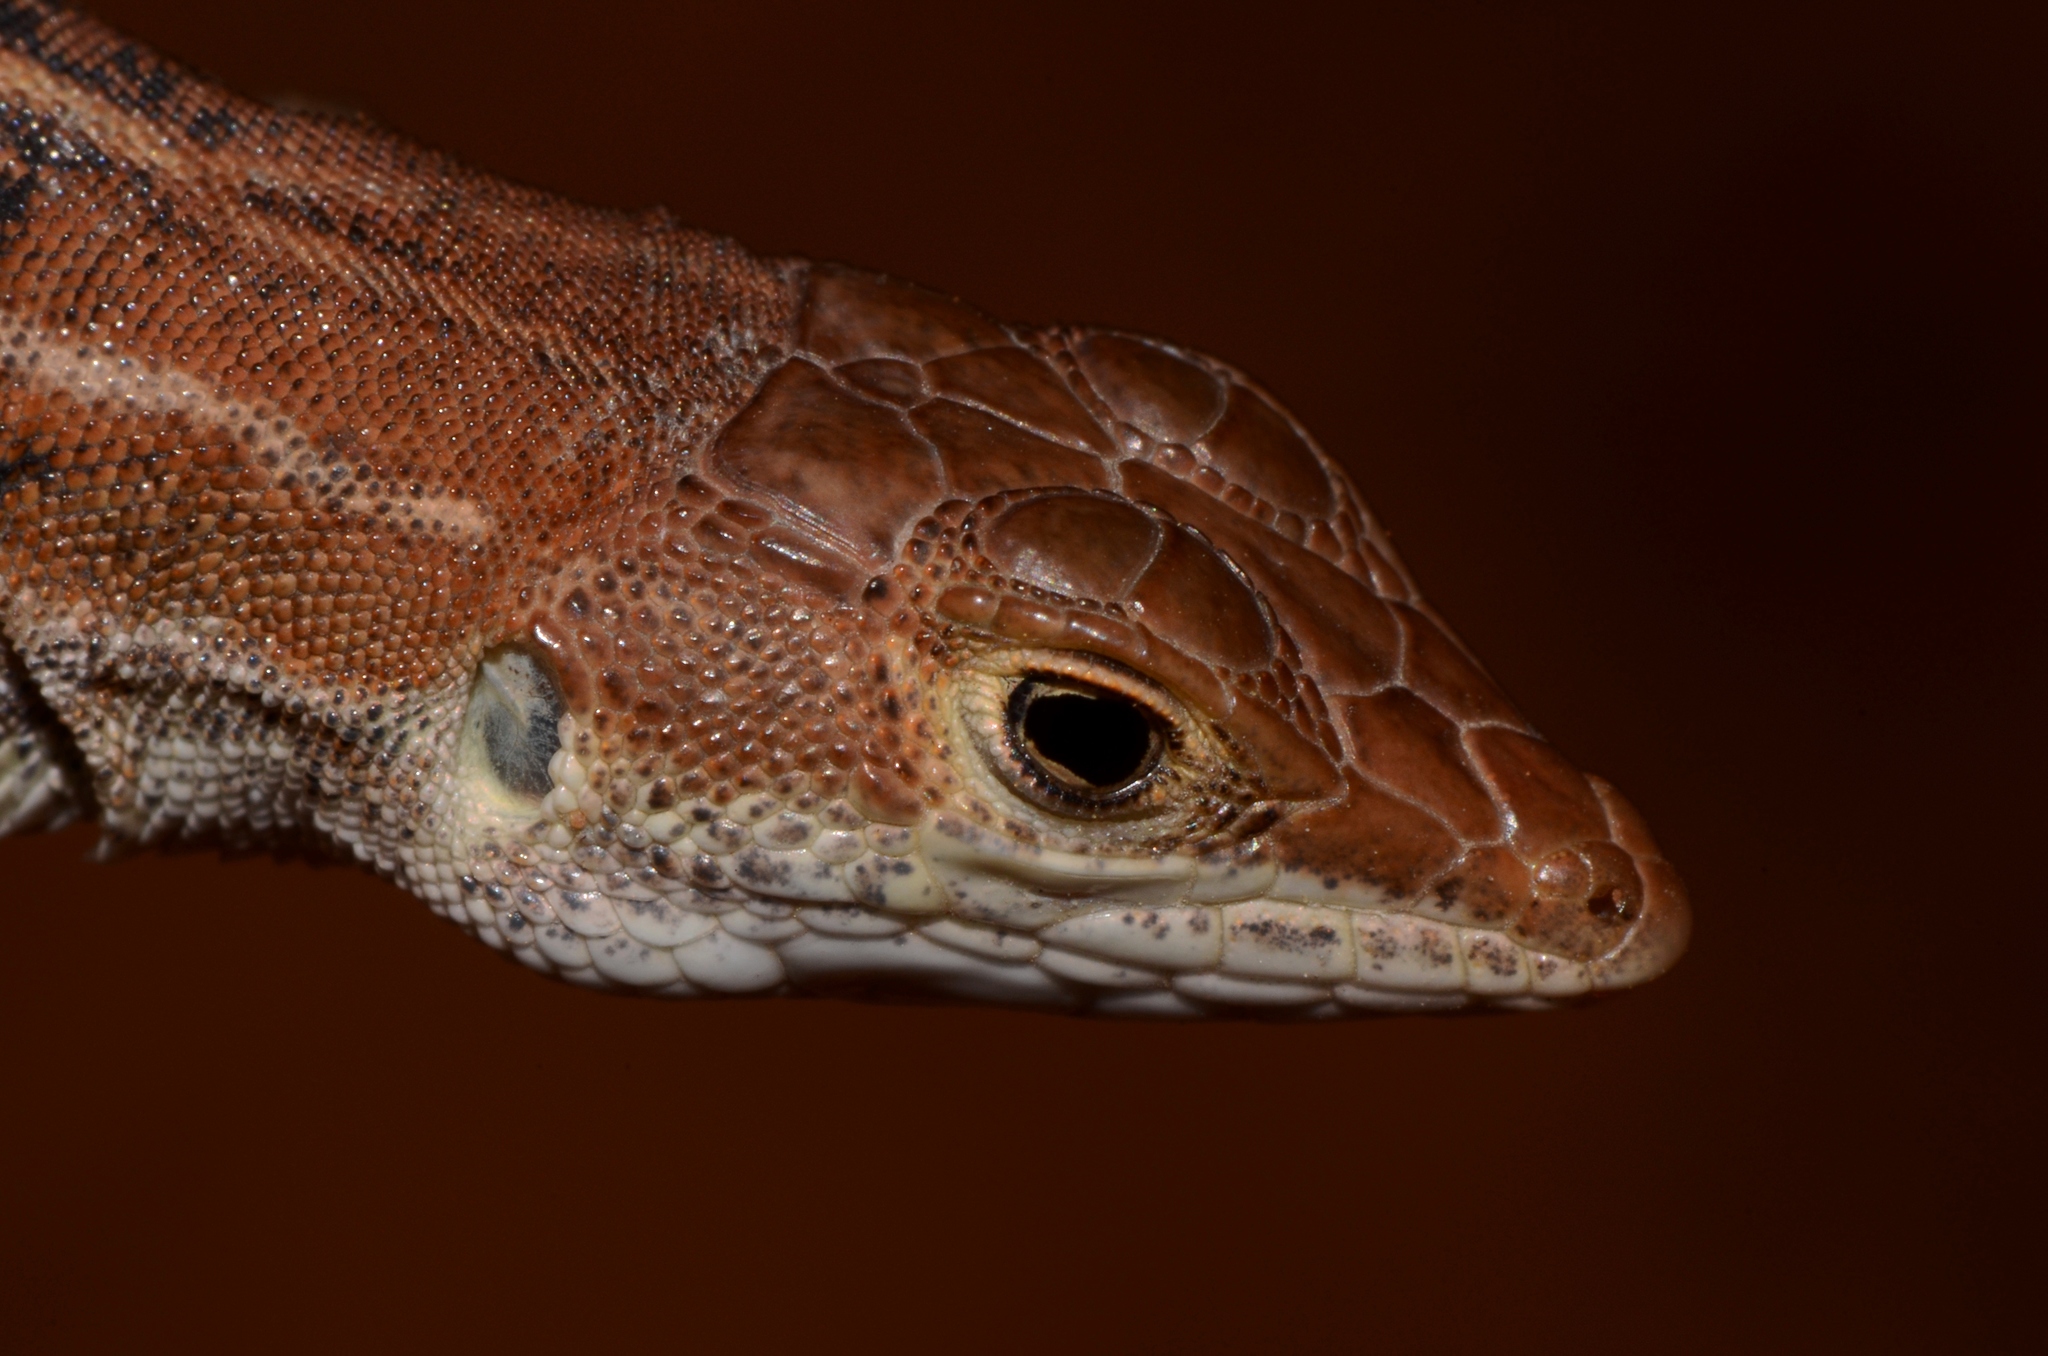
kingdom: Animalia
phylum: Chordata
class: Squamata
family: Lacertidae
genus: Heliobolus
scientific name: Heliobolus lugubris
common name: Bushveld lizard
